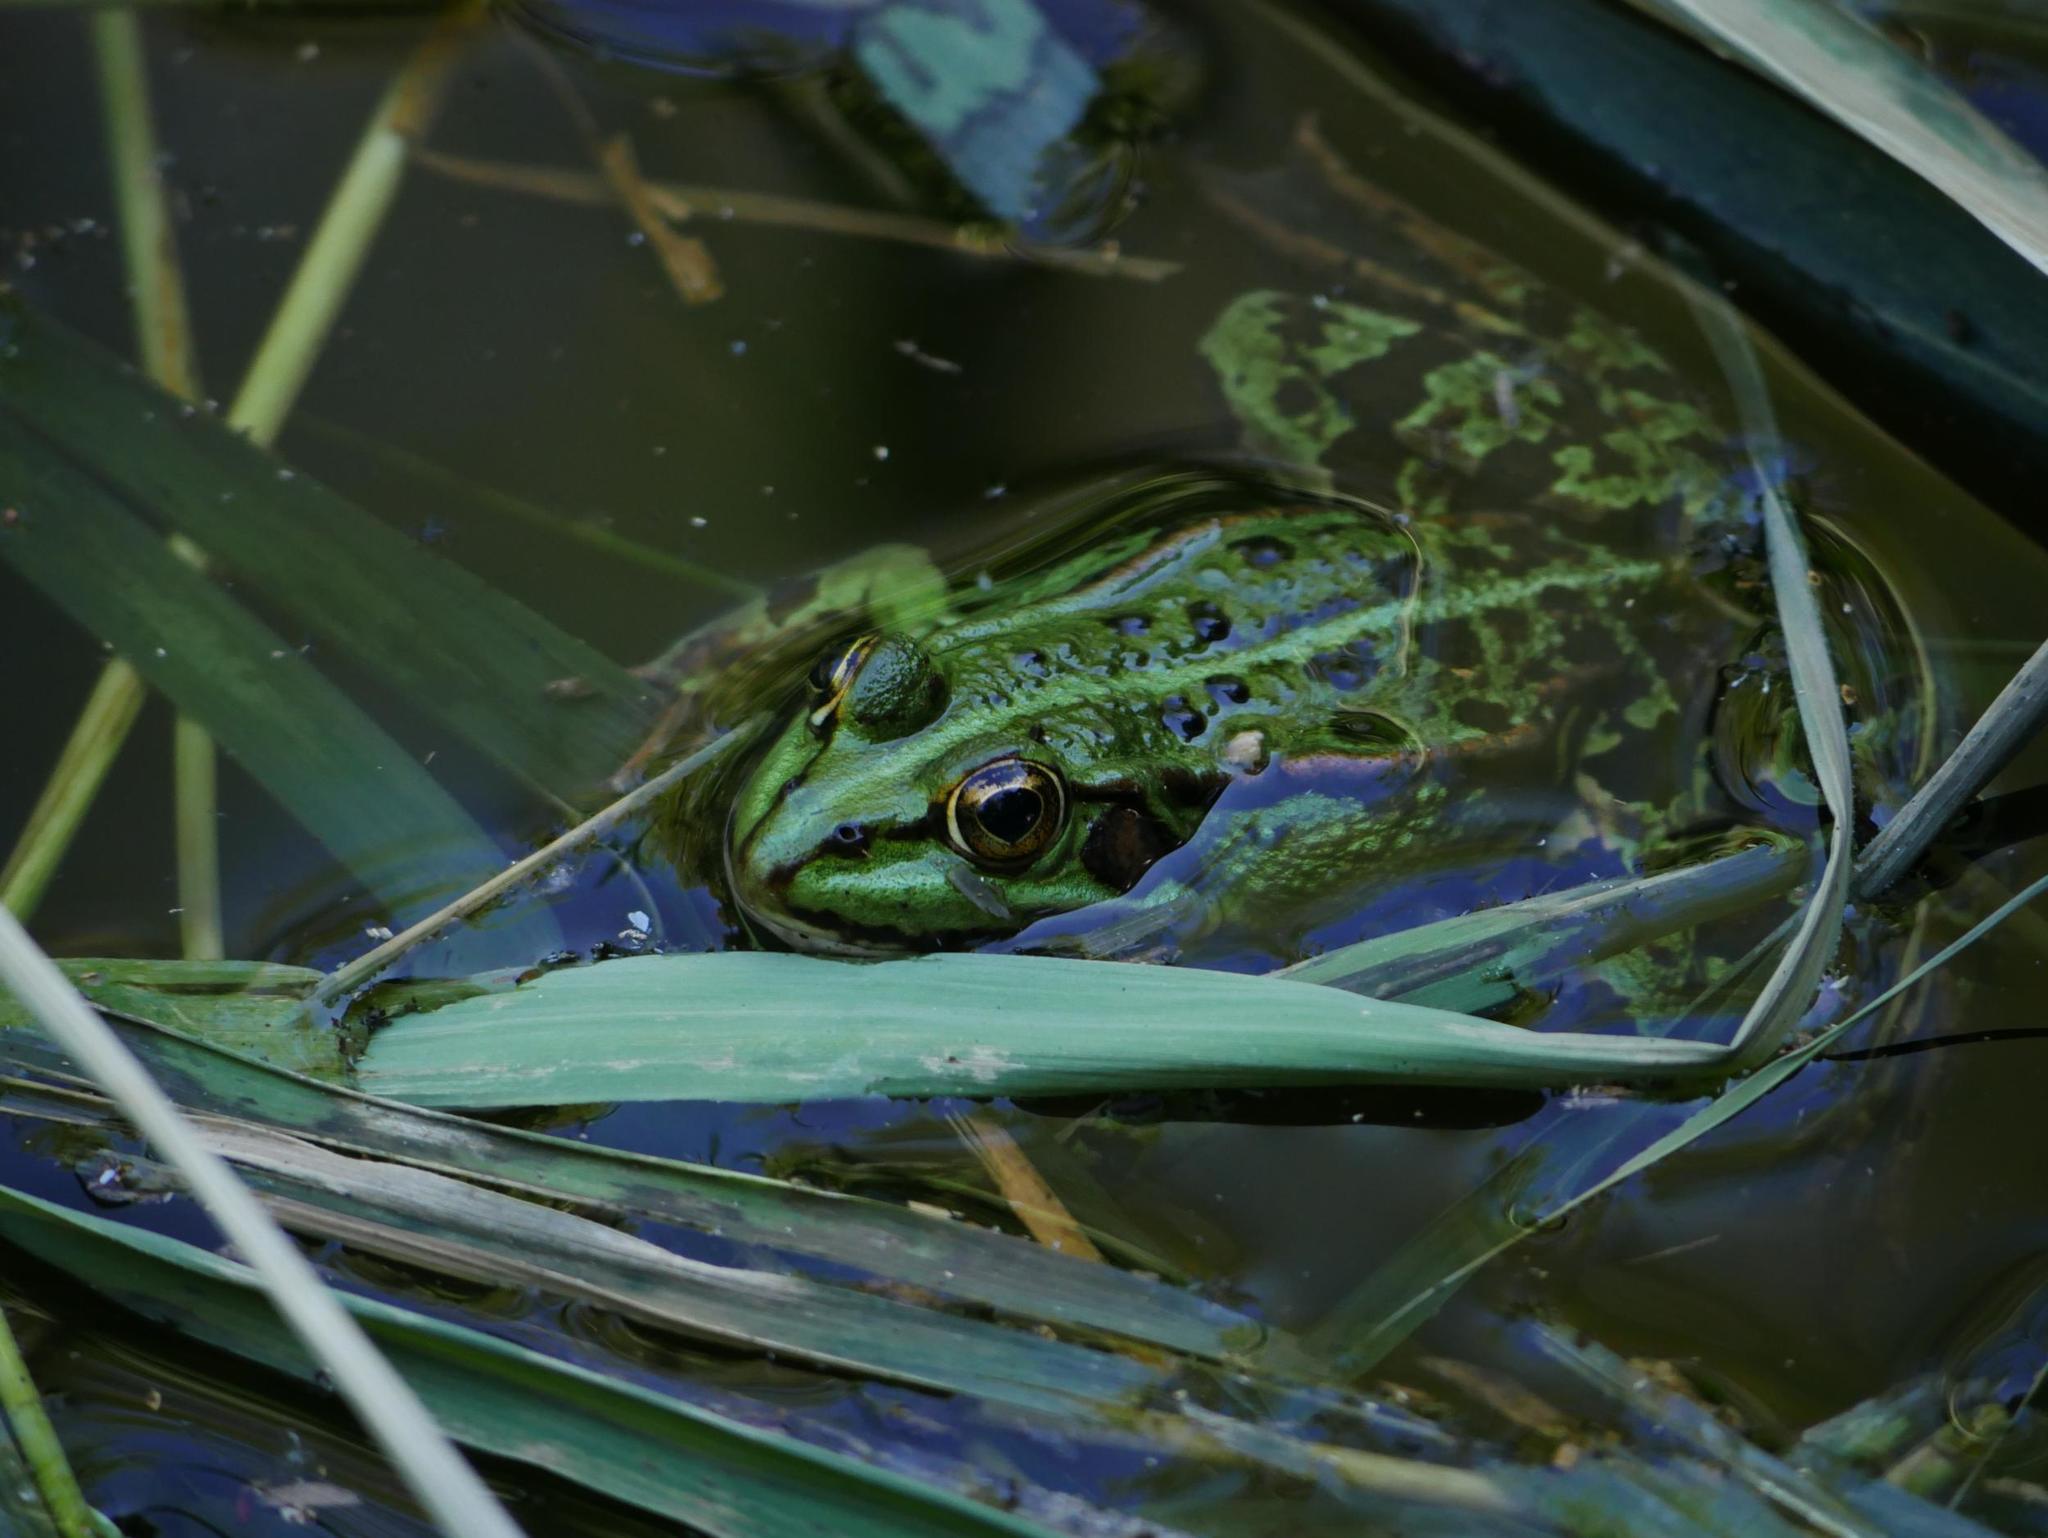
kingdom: Animalia
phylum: Chordata
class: Amphibia
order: Anura
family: Ranidae
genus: Pelophylax
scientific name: Pelophylax
